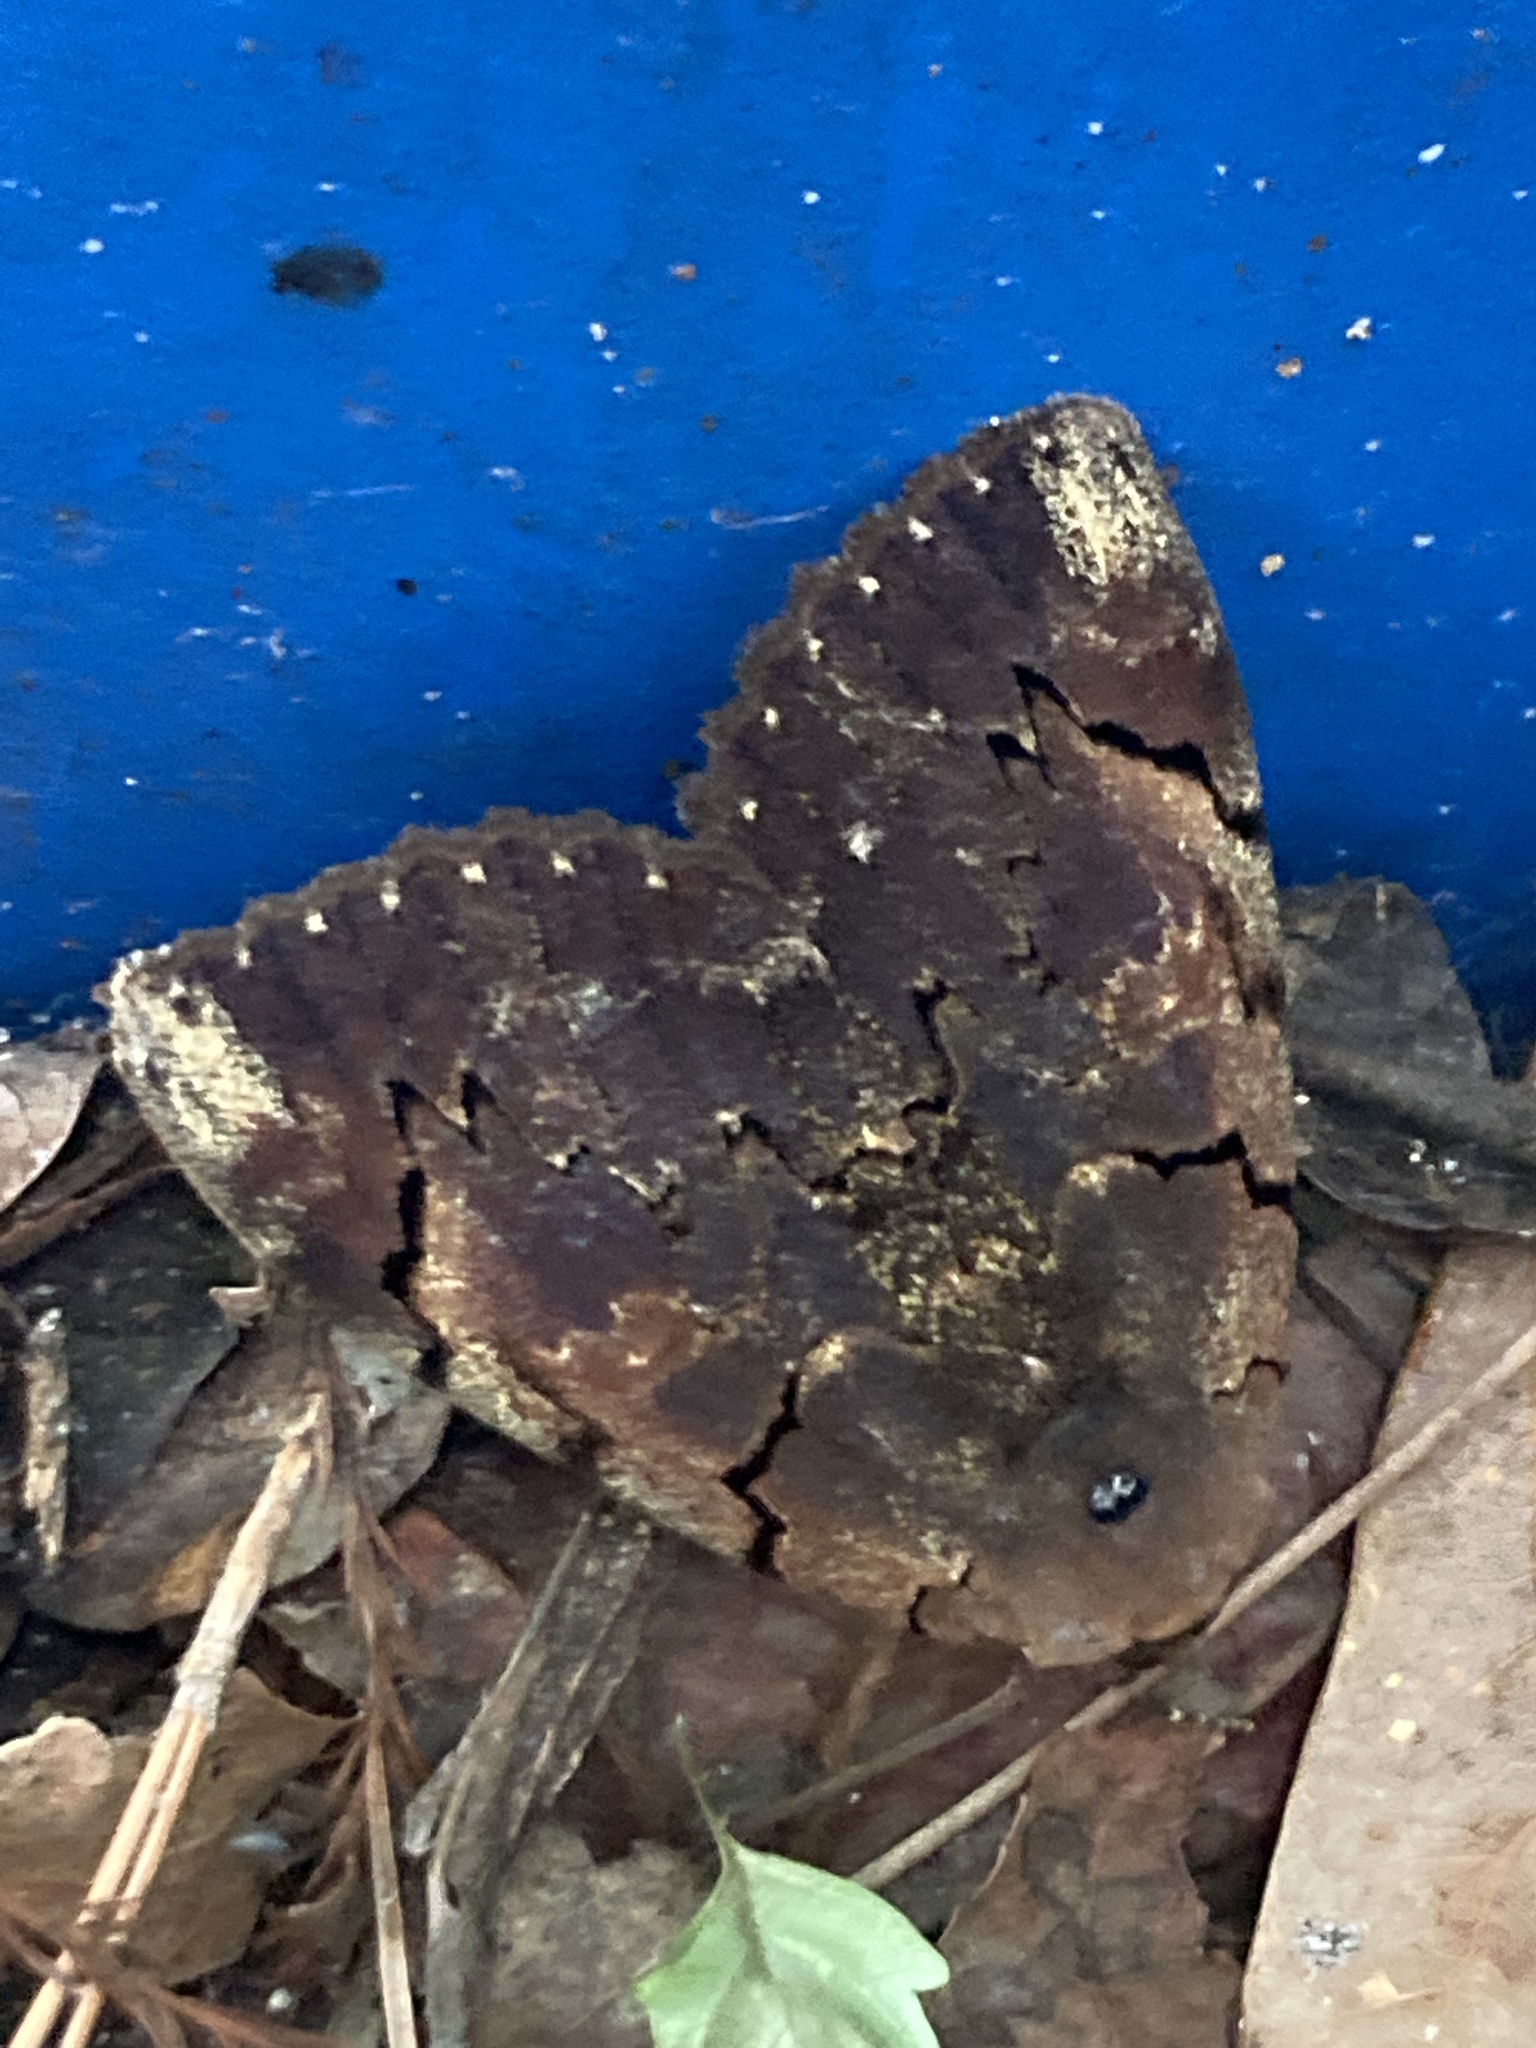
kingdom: Animalia
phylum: Arthropoda
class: Insecta
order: Lepidoptera
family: Erebidae
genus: Catocala
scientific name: Catocala carissima
